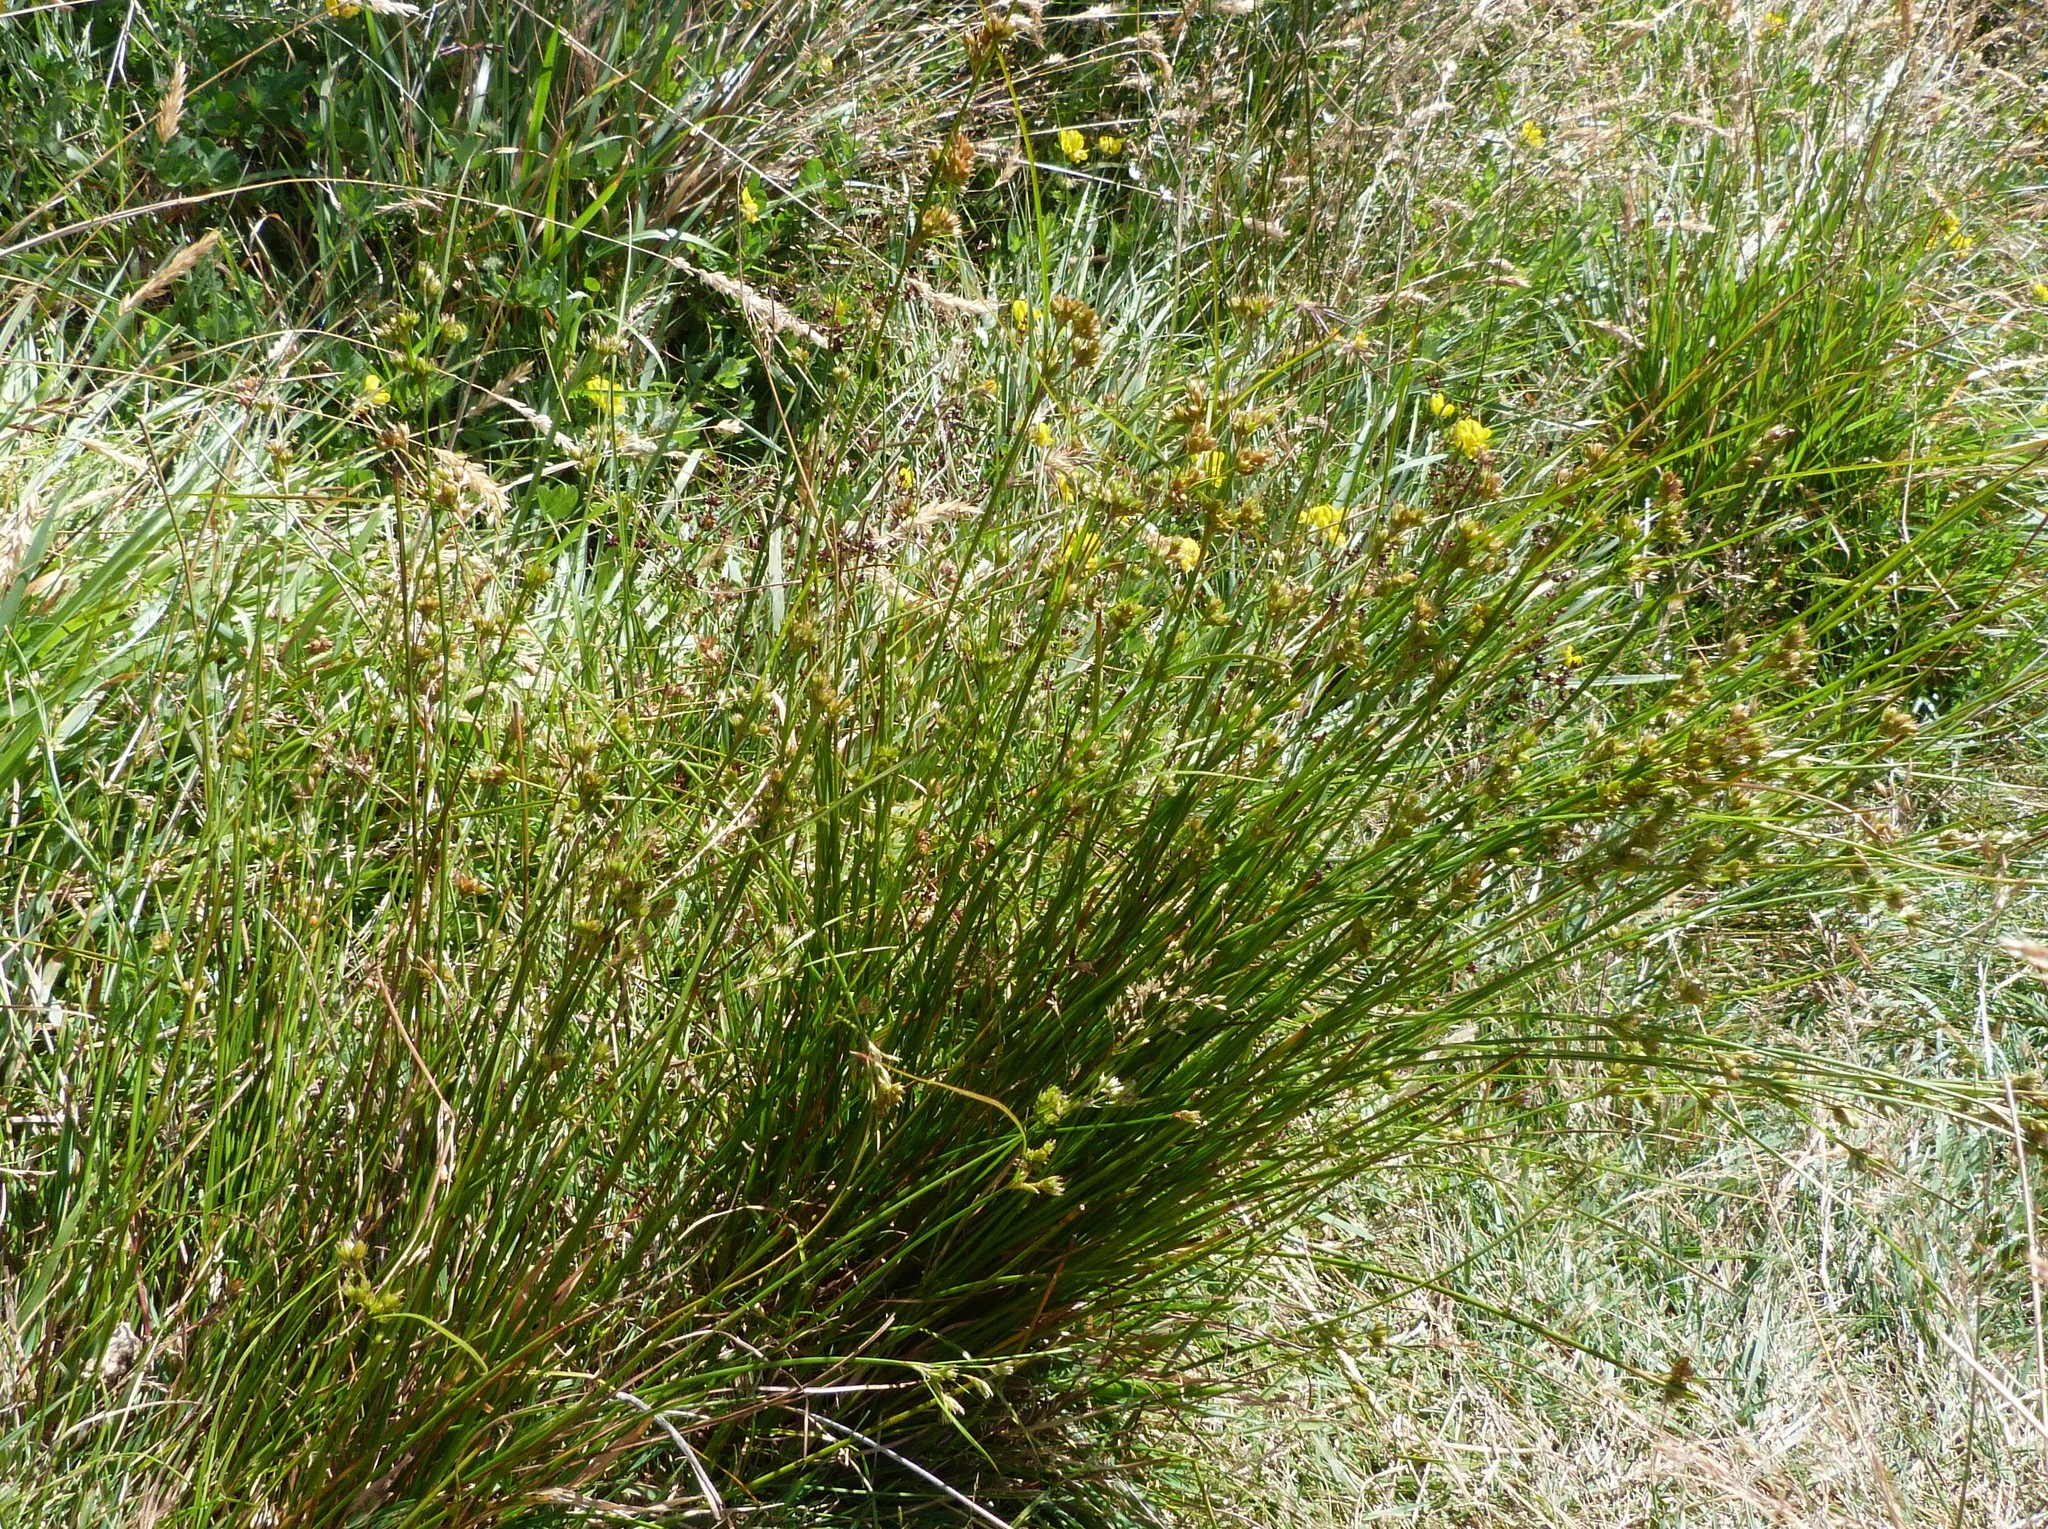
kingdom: Plantae
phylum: Tracheophyta
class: Liliopsida
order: Poales
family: Juncaceae
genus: Juncus
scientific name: Juncus tenuis
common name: Slender rush
